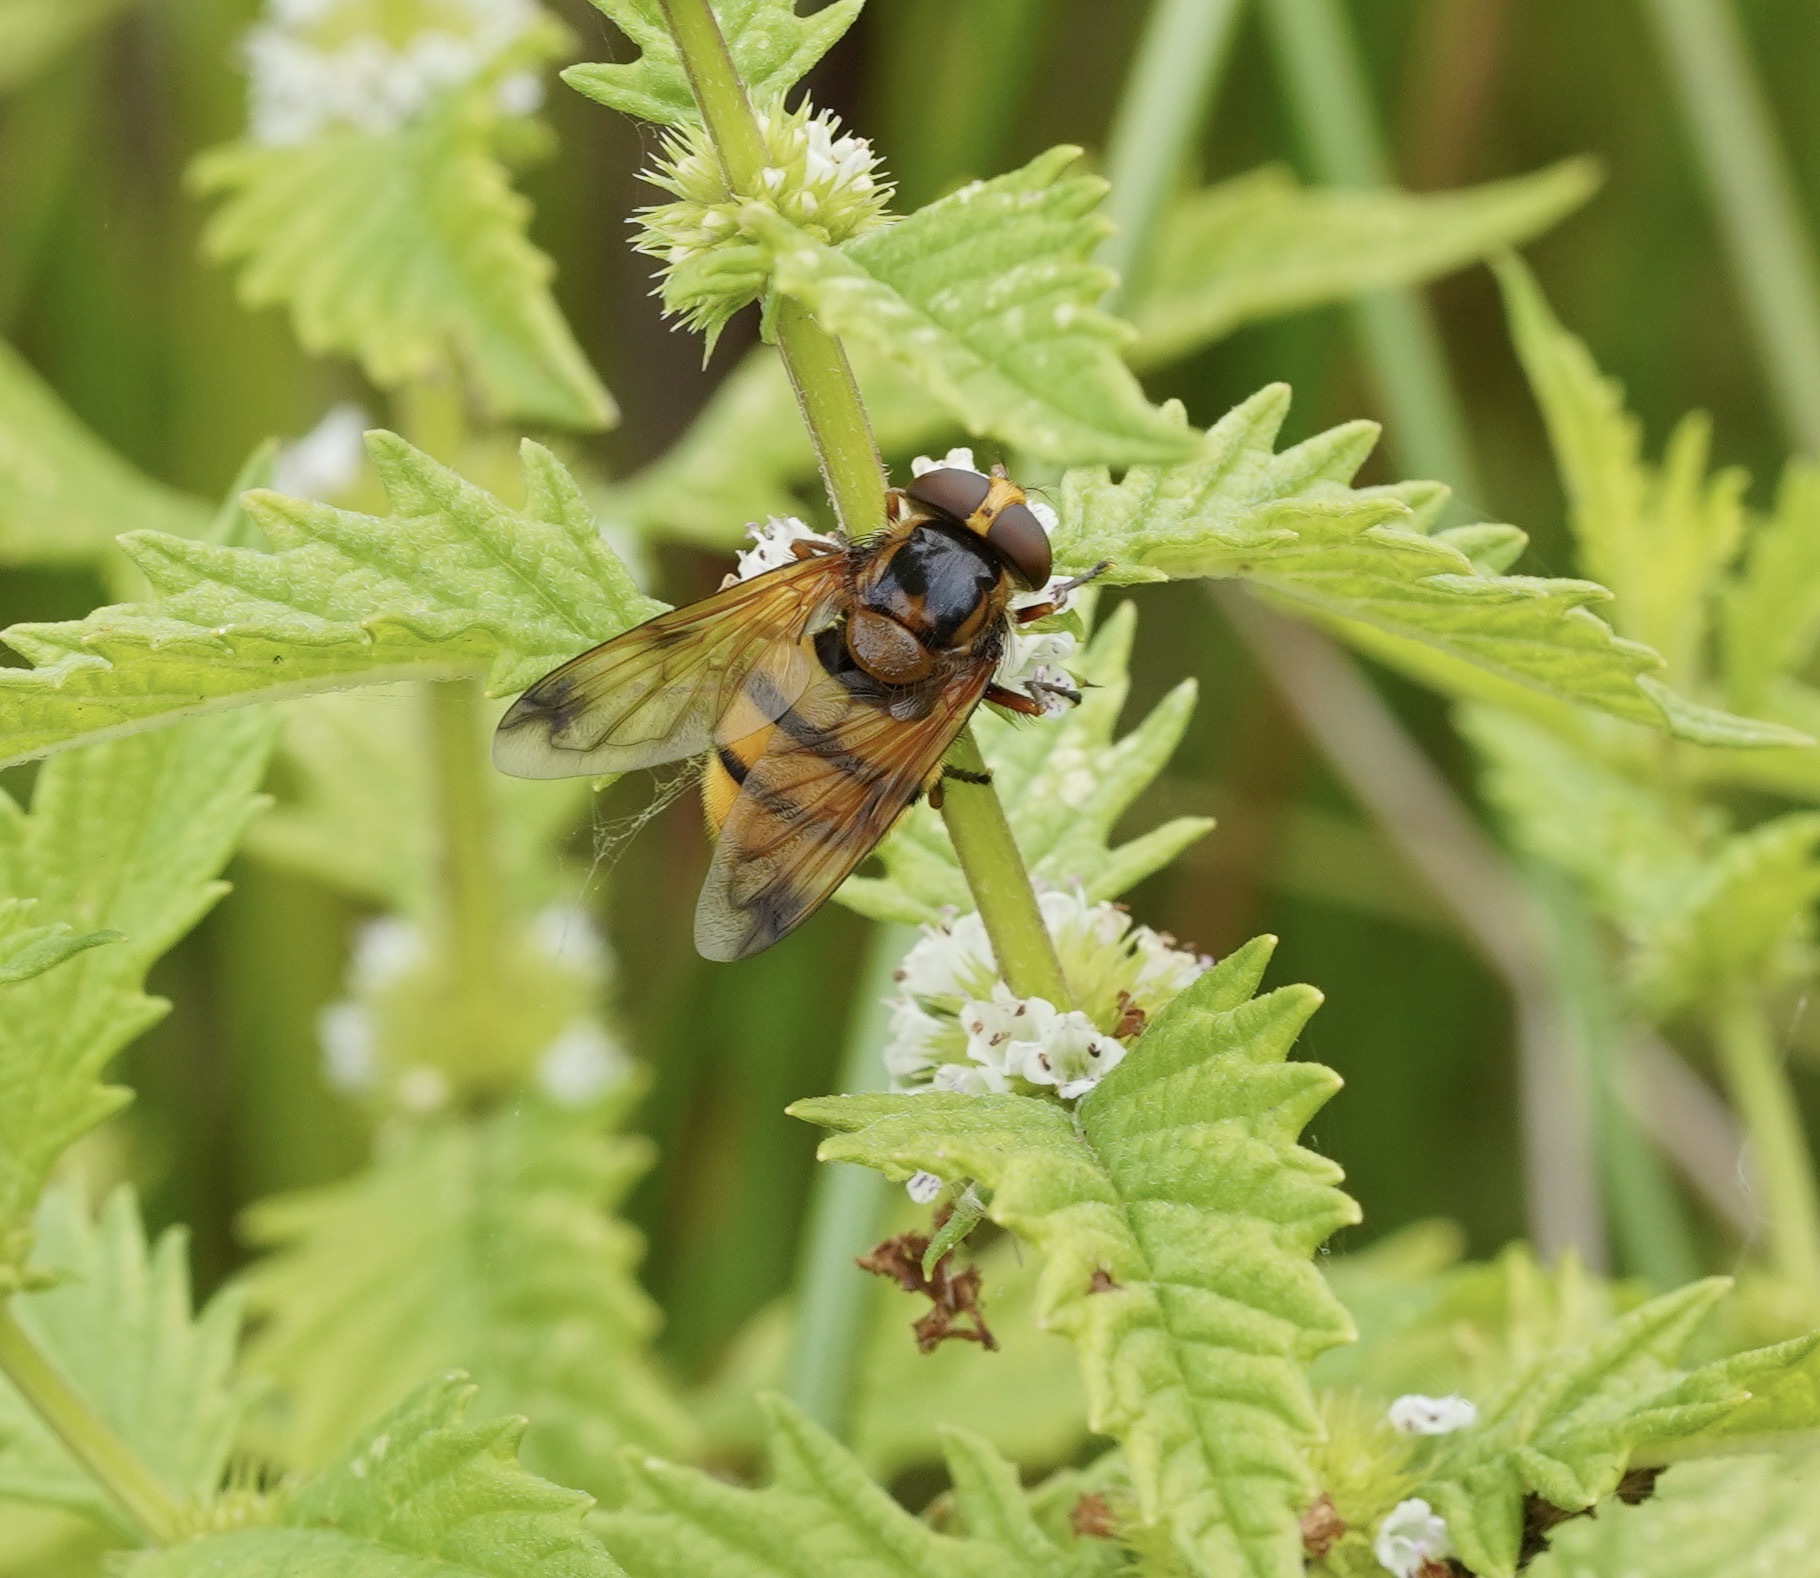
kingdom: Animalia
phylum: Arthropoda
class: Insecta
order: Diptera
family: Syrphidae
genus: Volucella
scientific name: Volucella inanis
